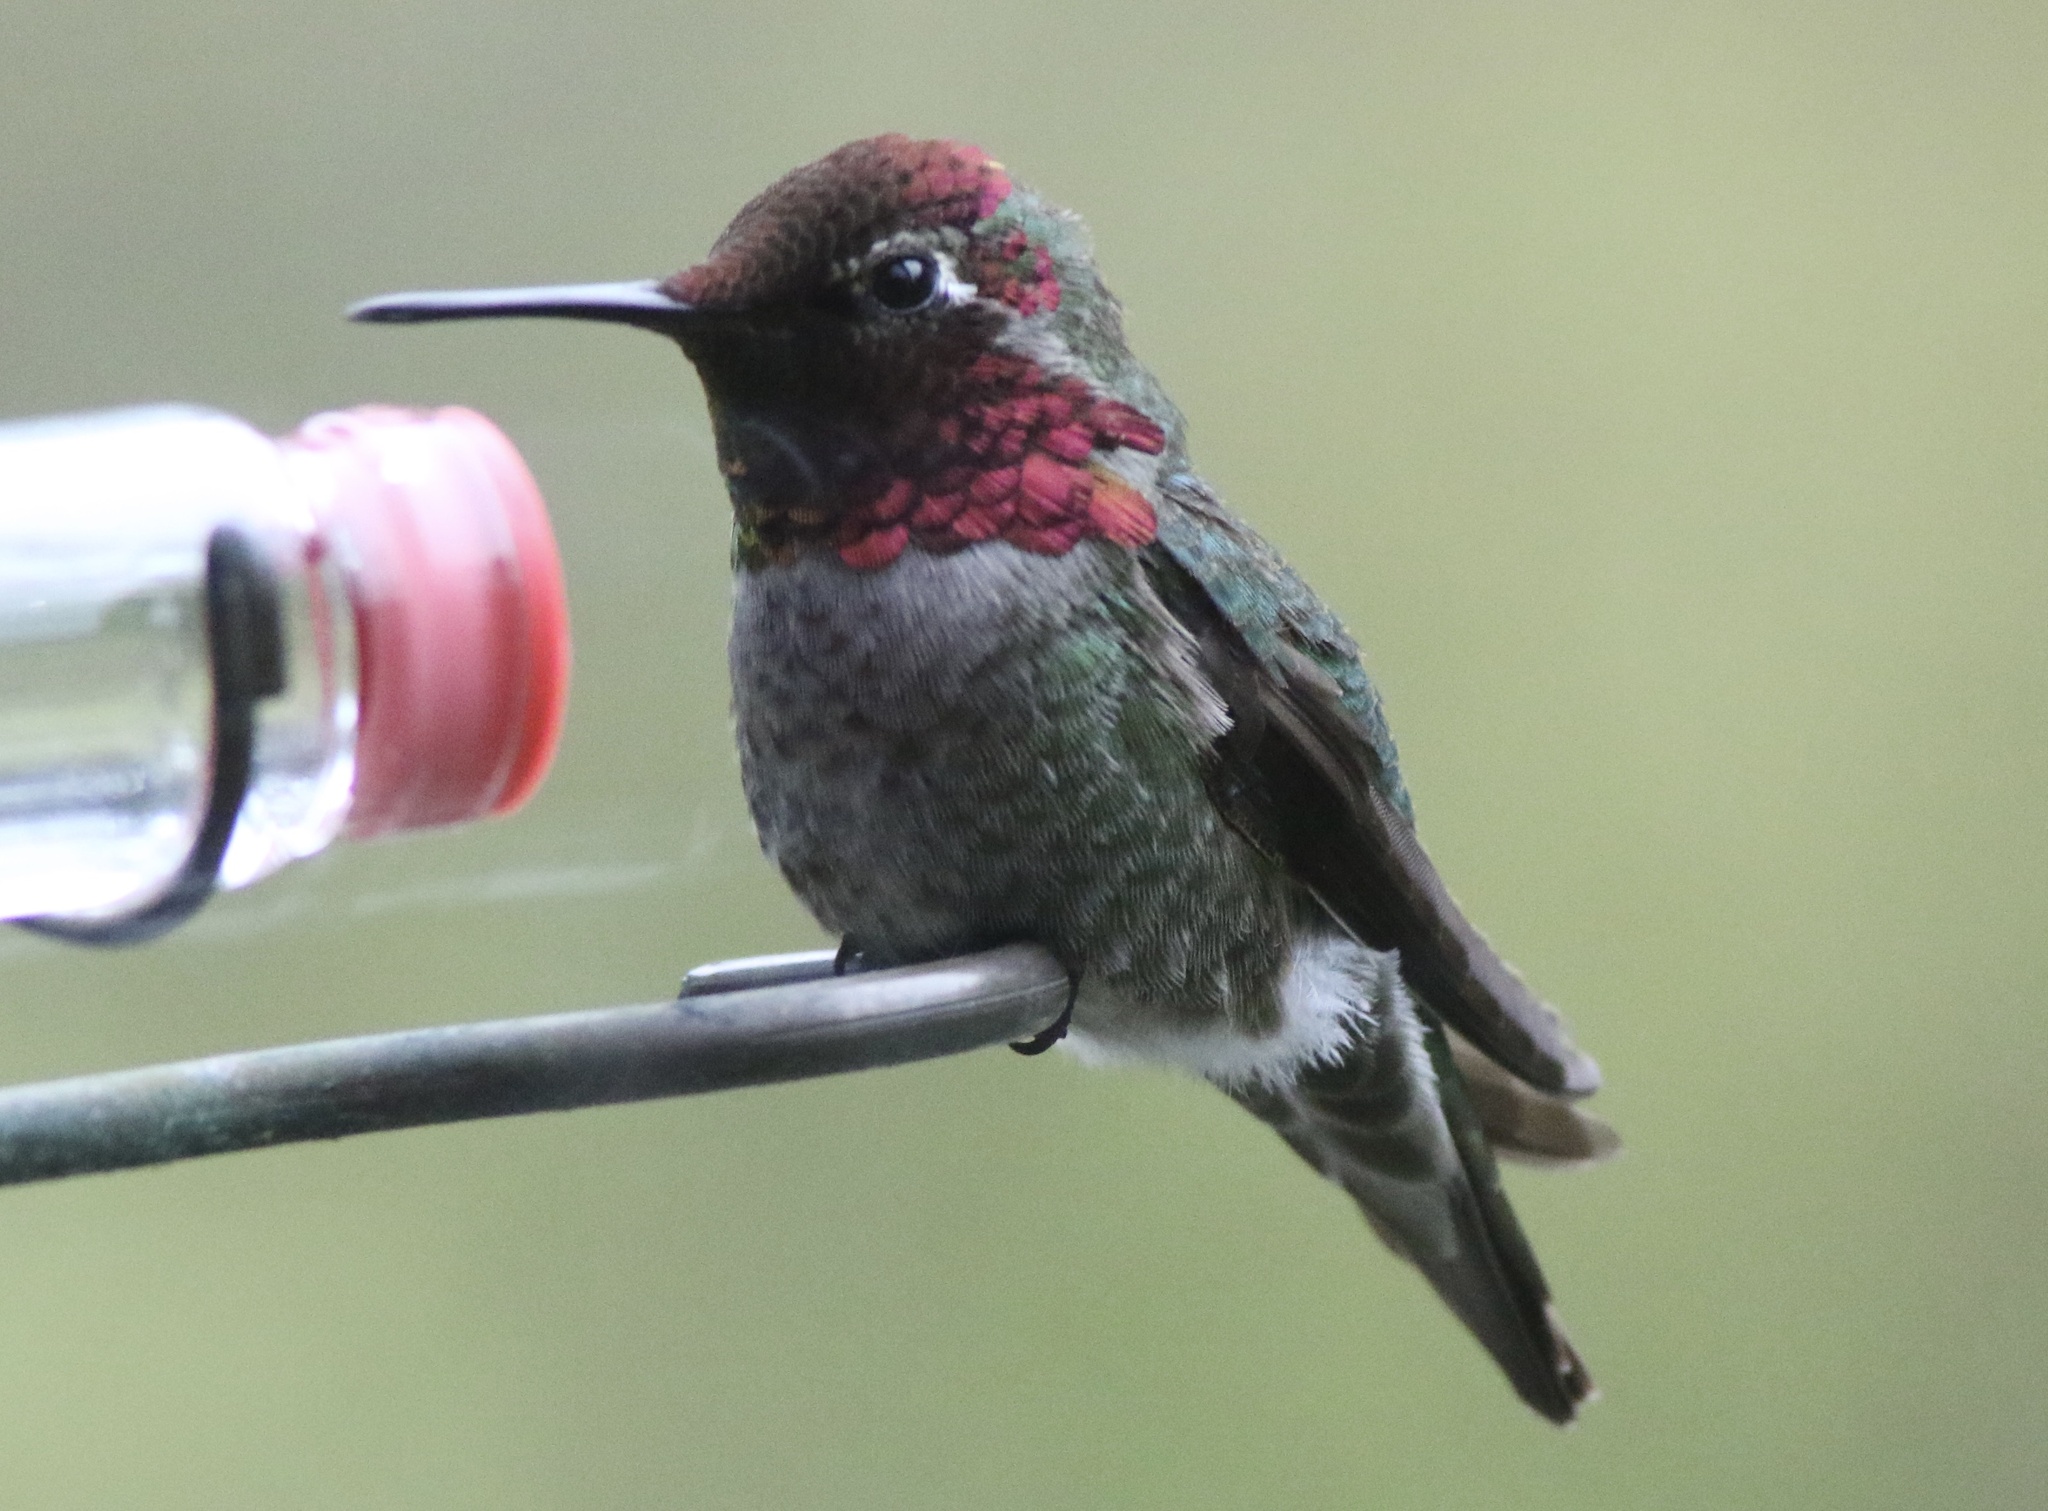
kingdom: Animalia
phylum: Chordata
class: Aves
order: Apodiformes
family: Trochilidae
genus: Calypte
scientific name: Calypte anna
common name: Anna's hummingbird
